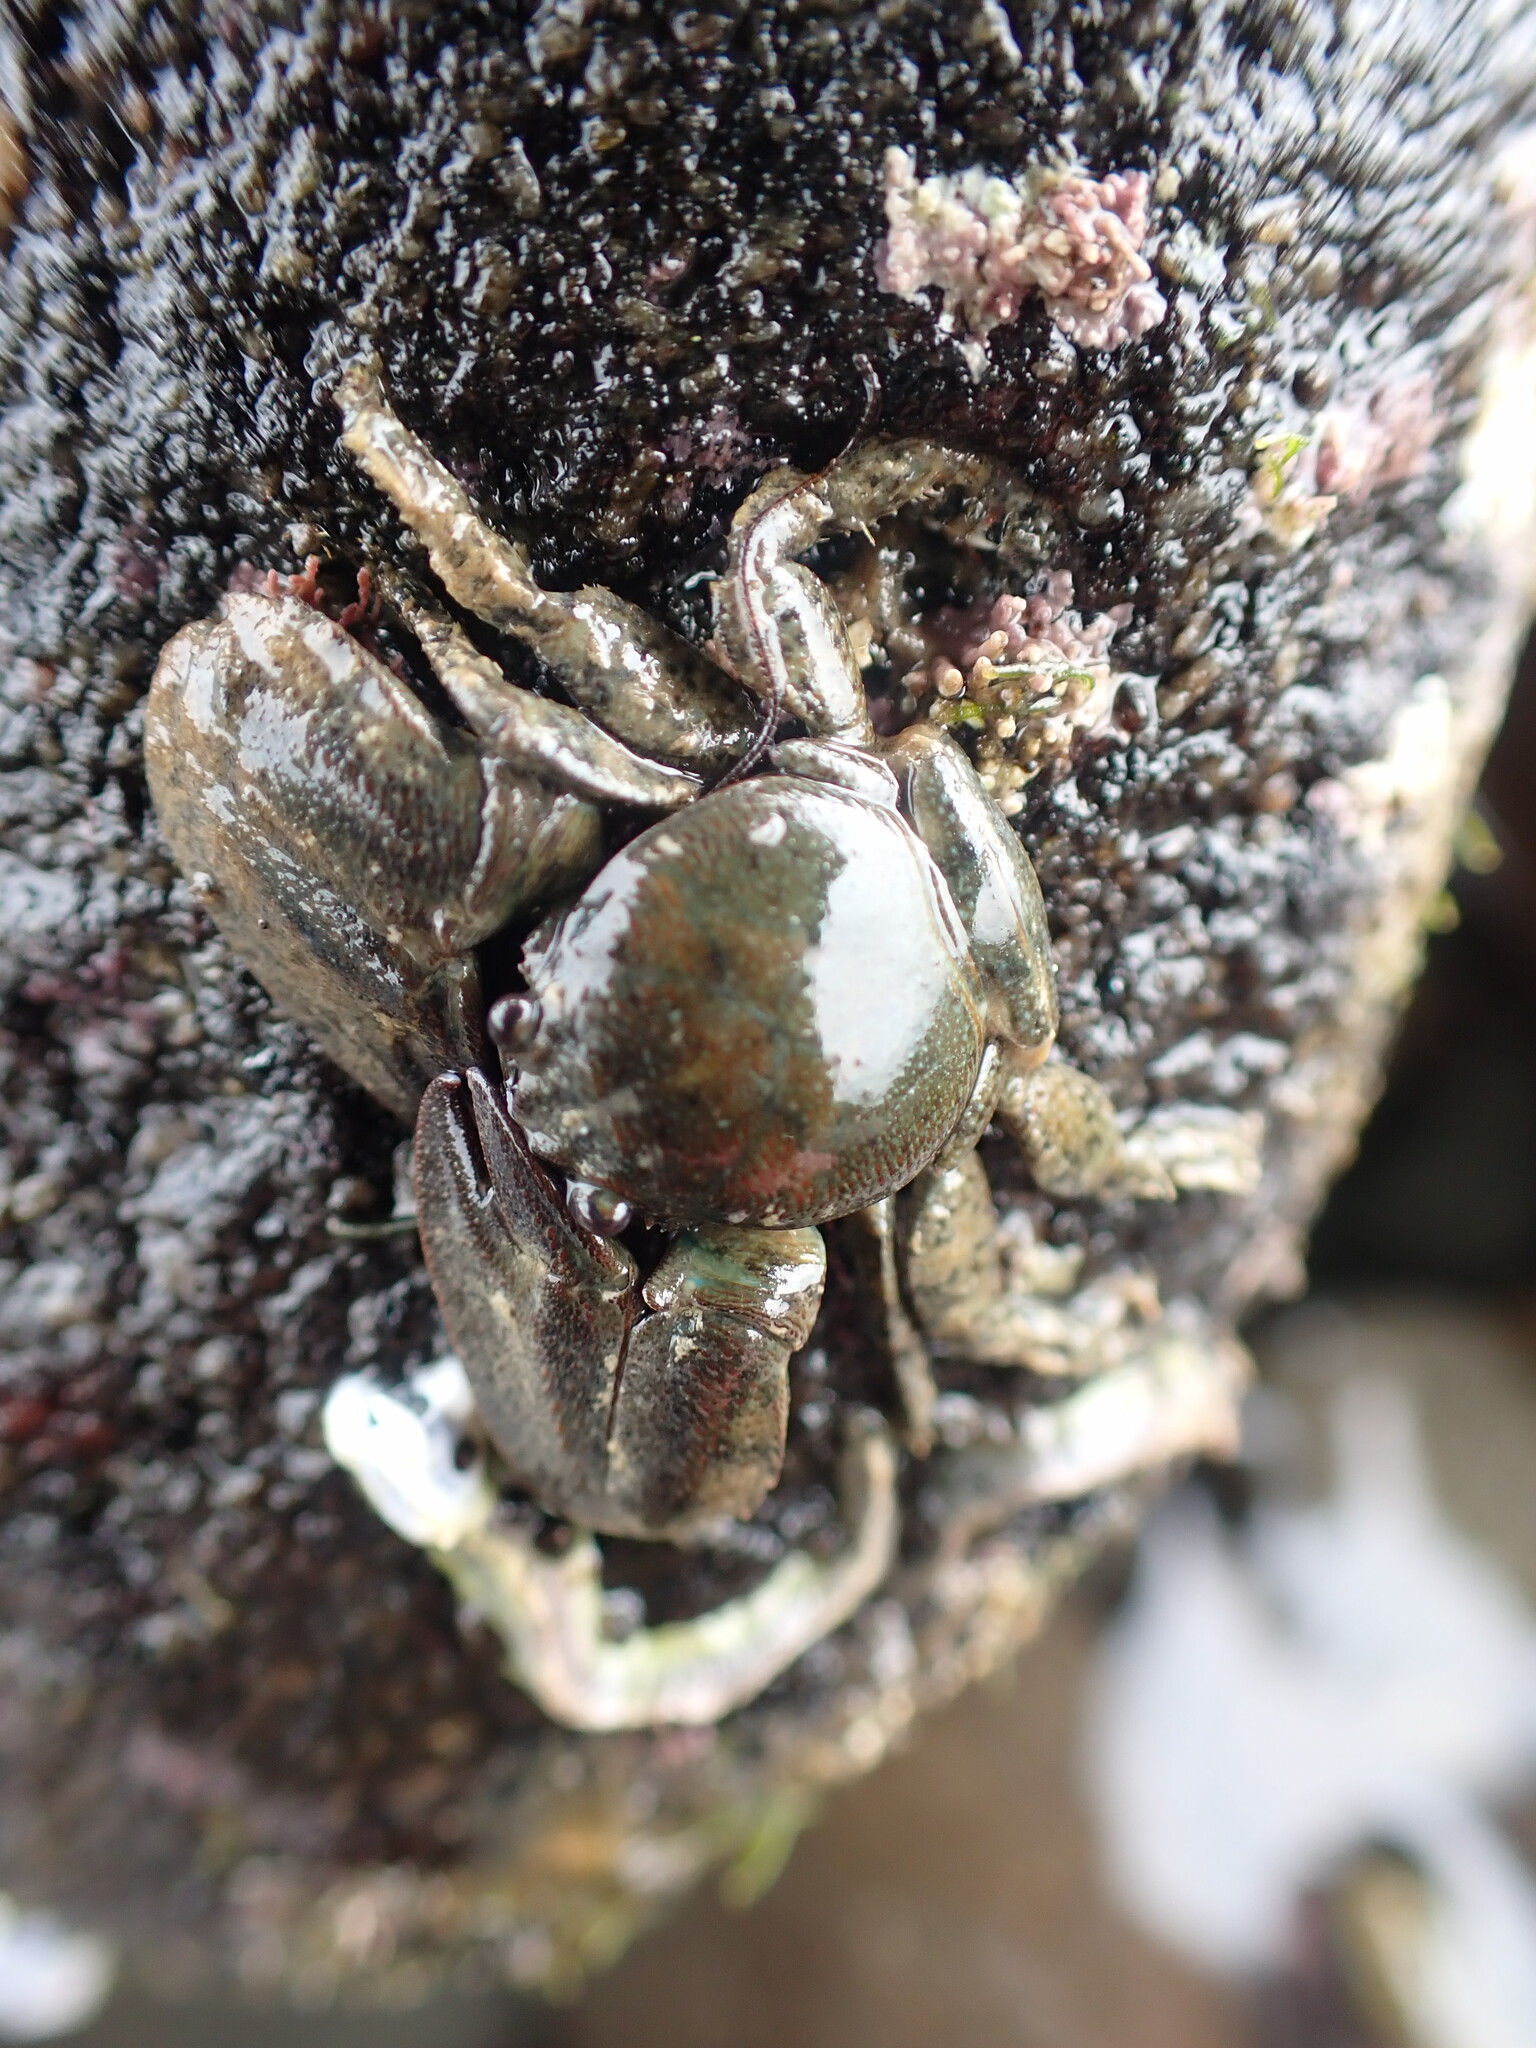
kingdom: Animalia
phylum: Arthropoda
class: Malacostraca
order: Decapoda
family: Porcellanidae
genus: Petrolisthes
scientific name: Petrolisthes elongatus
